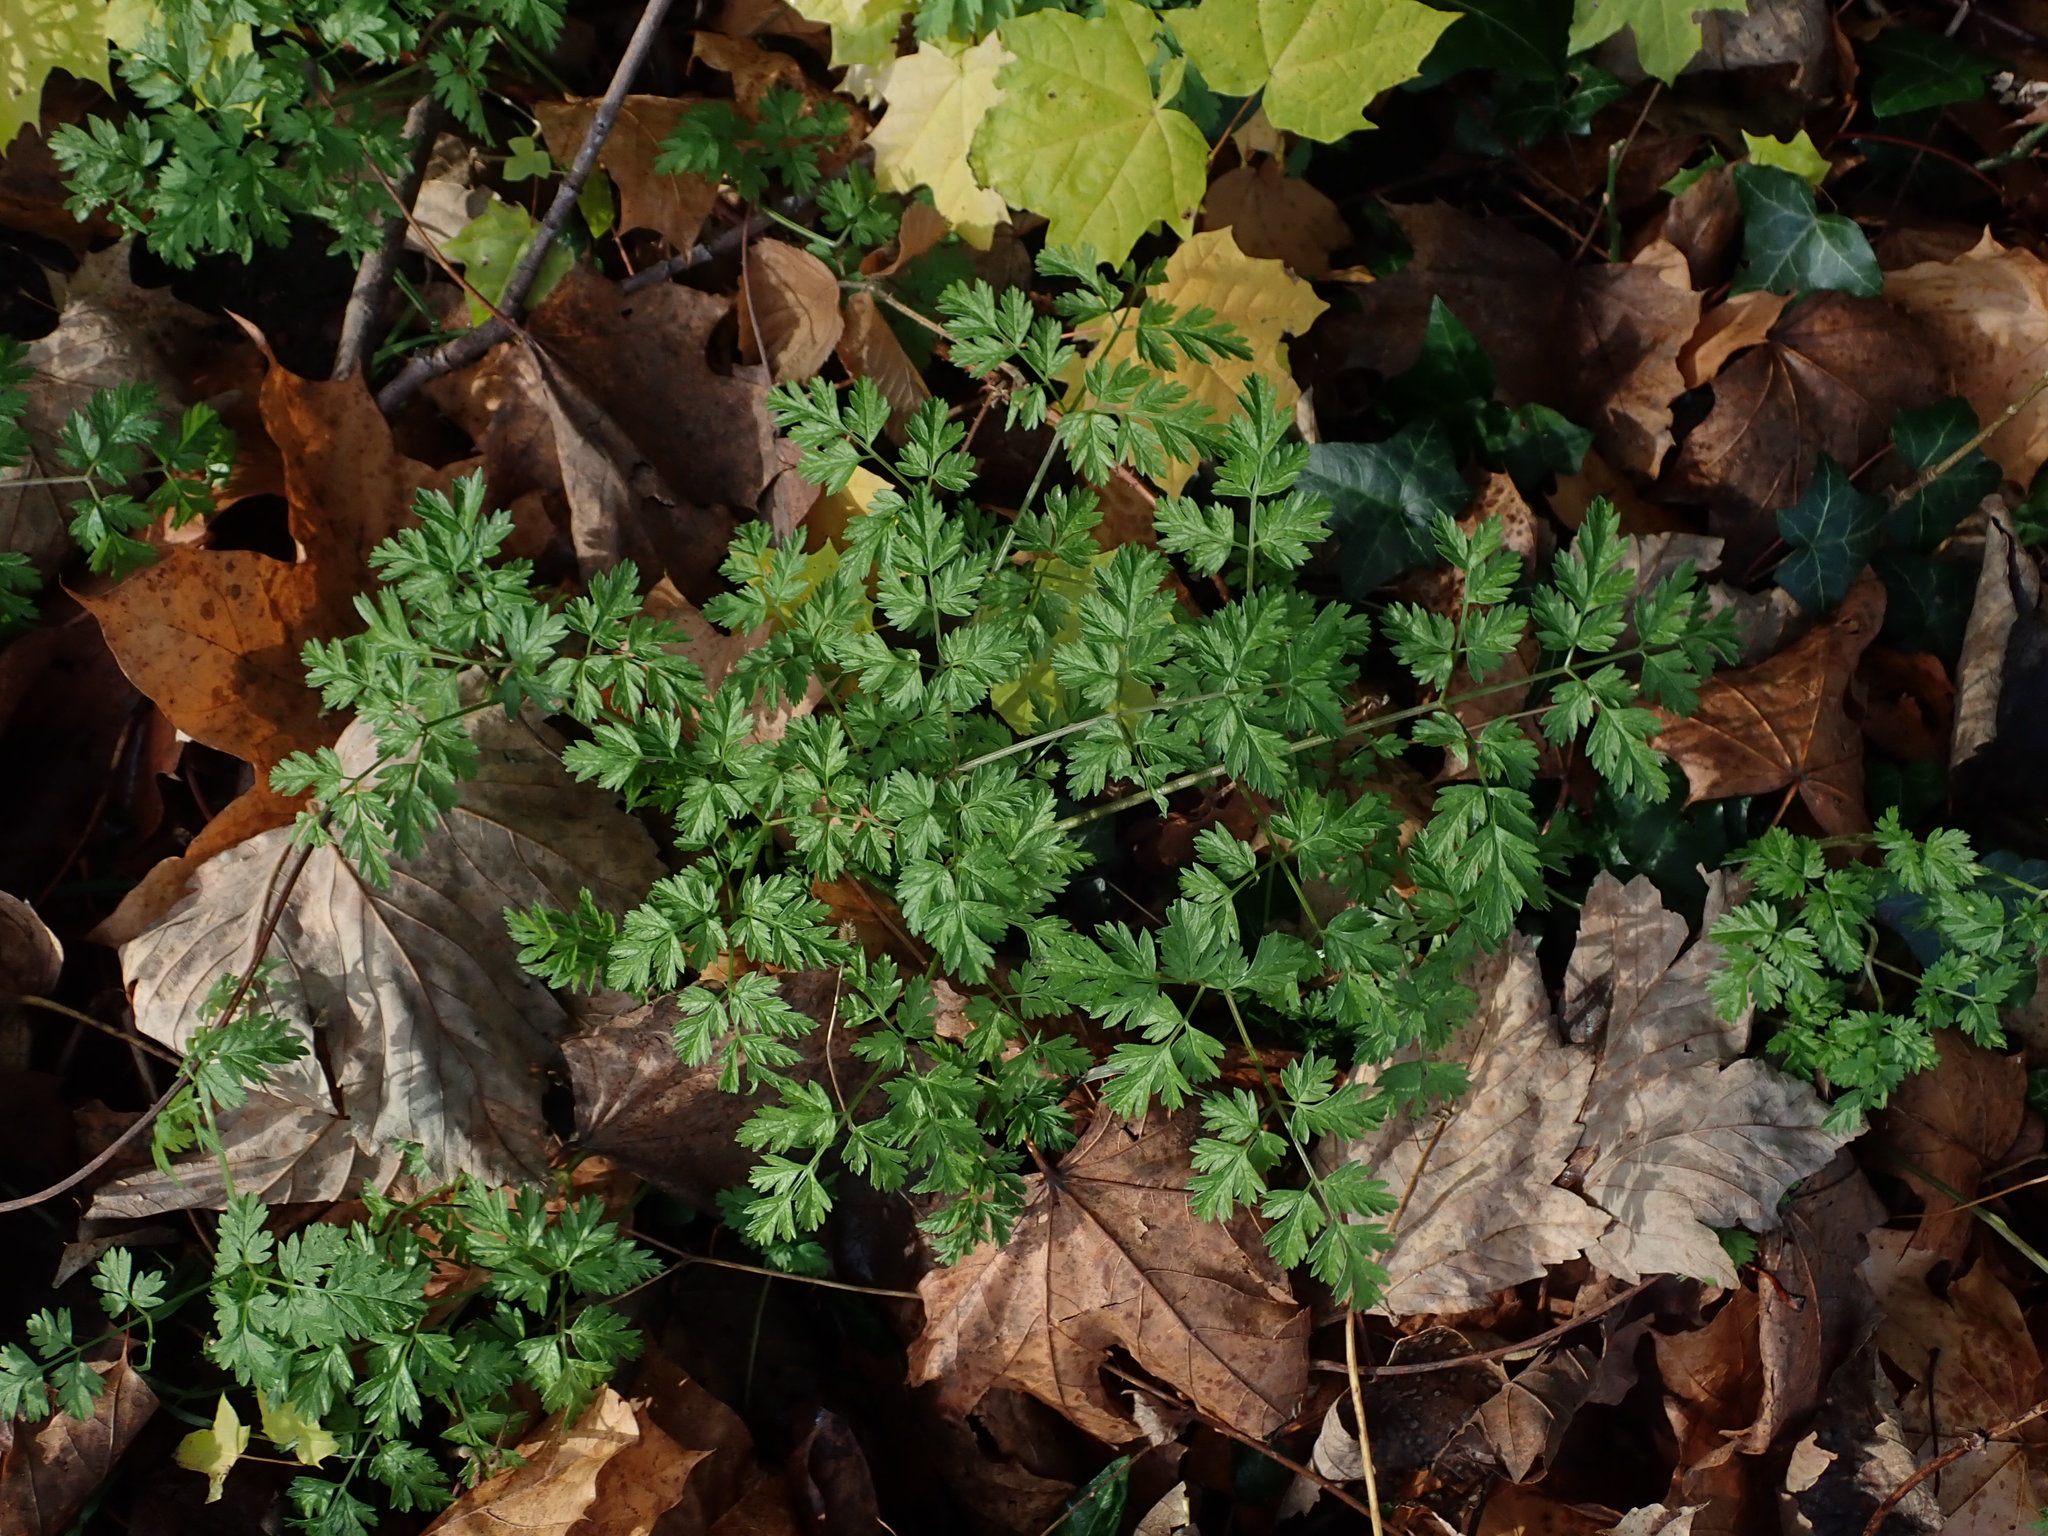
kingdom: Plantae
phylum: Tracheophyta
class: Magnoliopsida
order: Apiales
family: Apiaceae
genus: Anthriscus
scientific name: Anthriscus sylvestris
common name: Cow parsley
